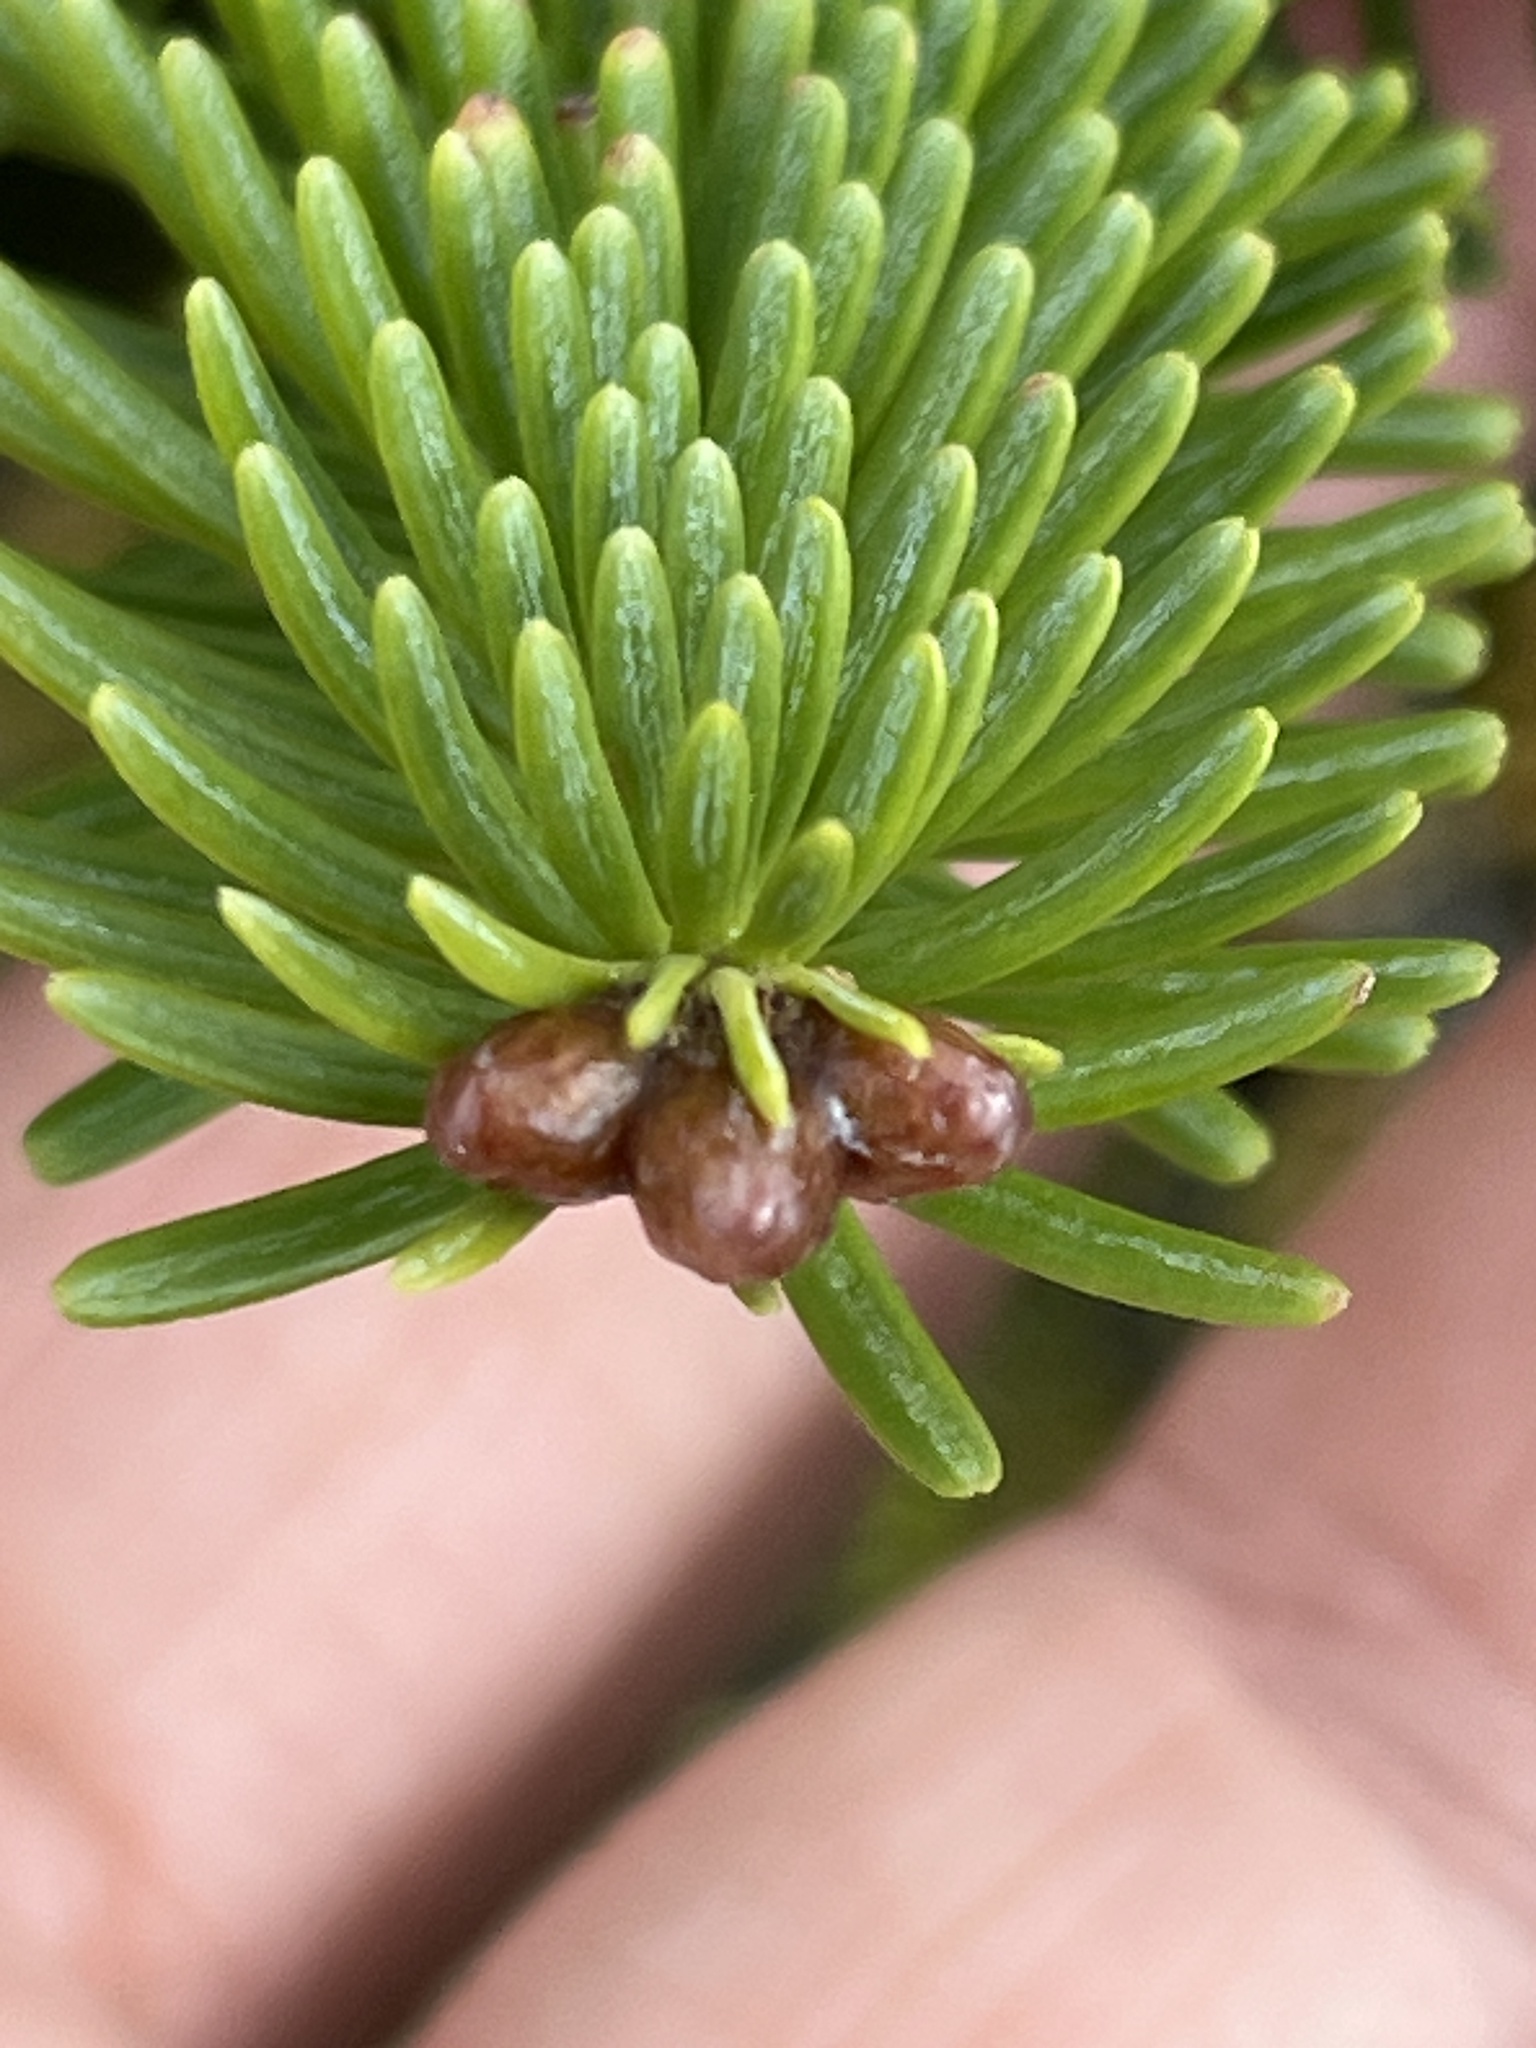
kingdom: Plantae
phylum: Tracheophyta
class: Pinopsida
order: Pinales
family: Pinaceae
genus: Abies
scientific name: Abies balsamea
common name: Balsam fir
